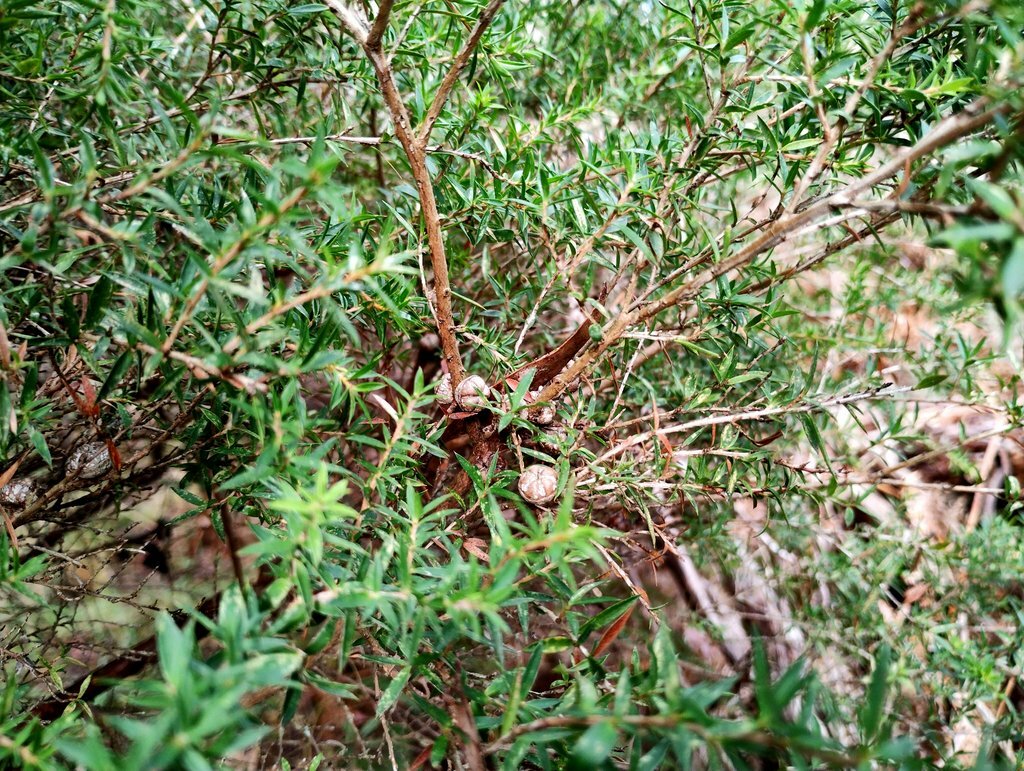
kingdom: Plantae
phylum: Tracheophyta
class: Magnoliopsida
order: Myrtales
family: Myrtaceae
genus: Leptospermum
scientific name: Leptospermum continentale
